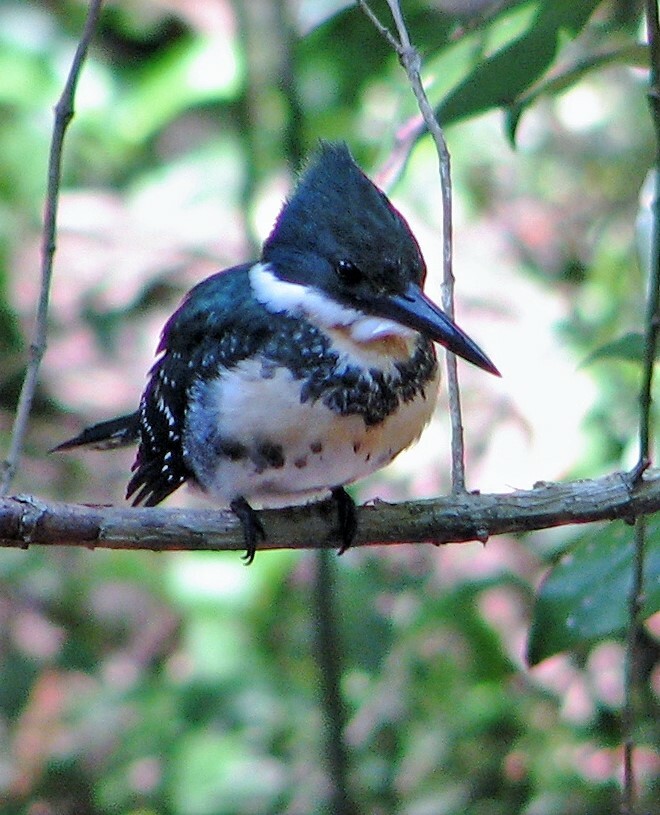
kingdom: Animalia
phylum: Chordata
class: Aves
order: Coraciiformes
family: Alcedinidae
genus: Chloroceryle
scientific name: Chloroceryle americana
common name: Green kingfisher
